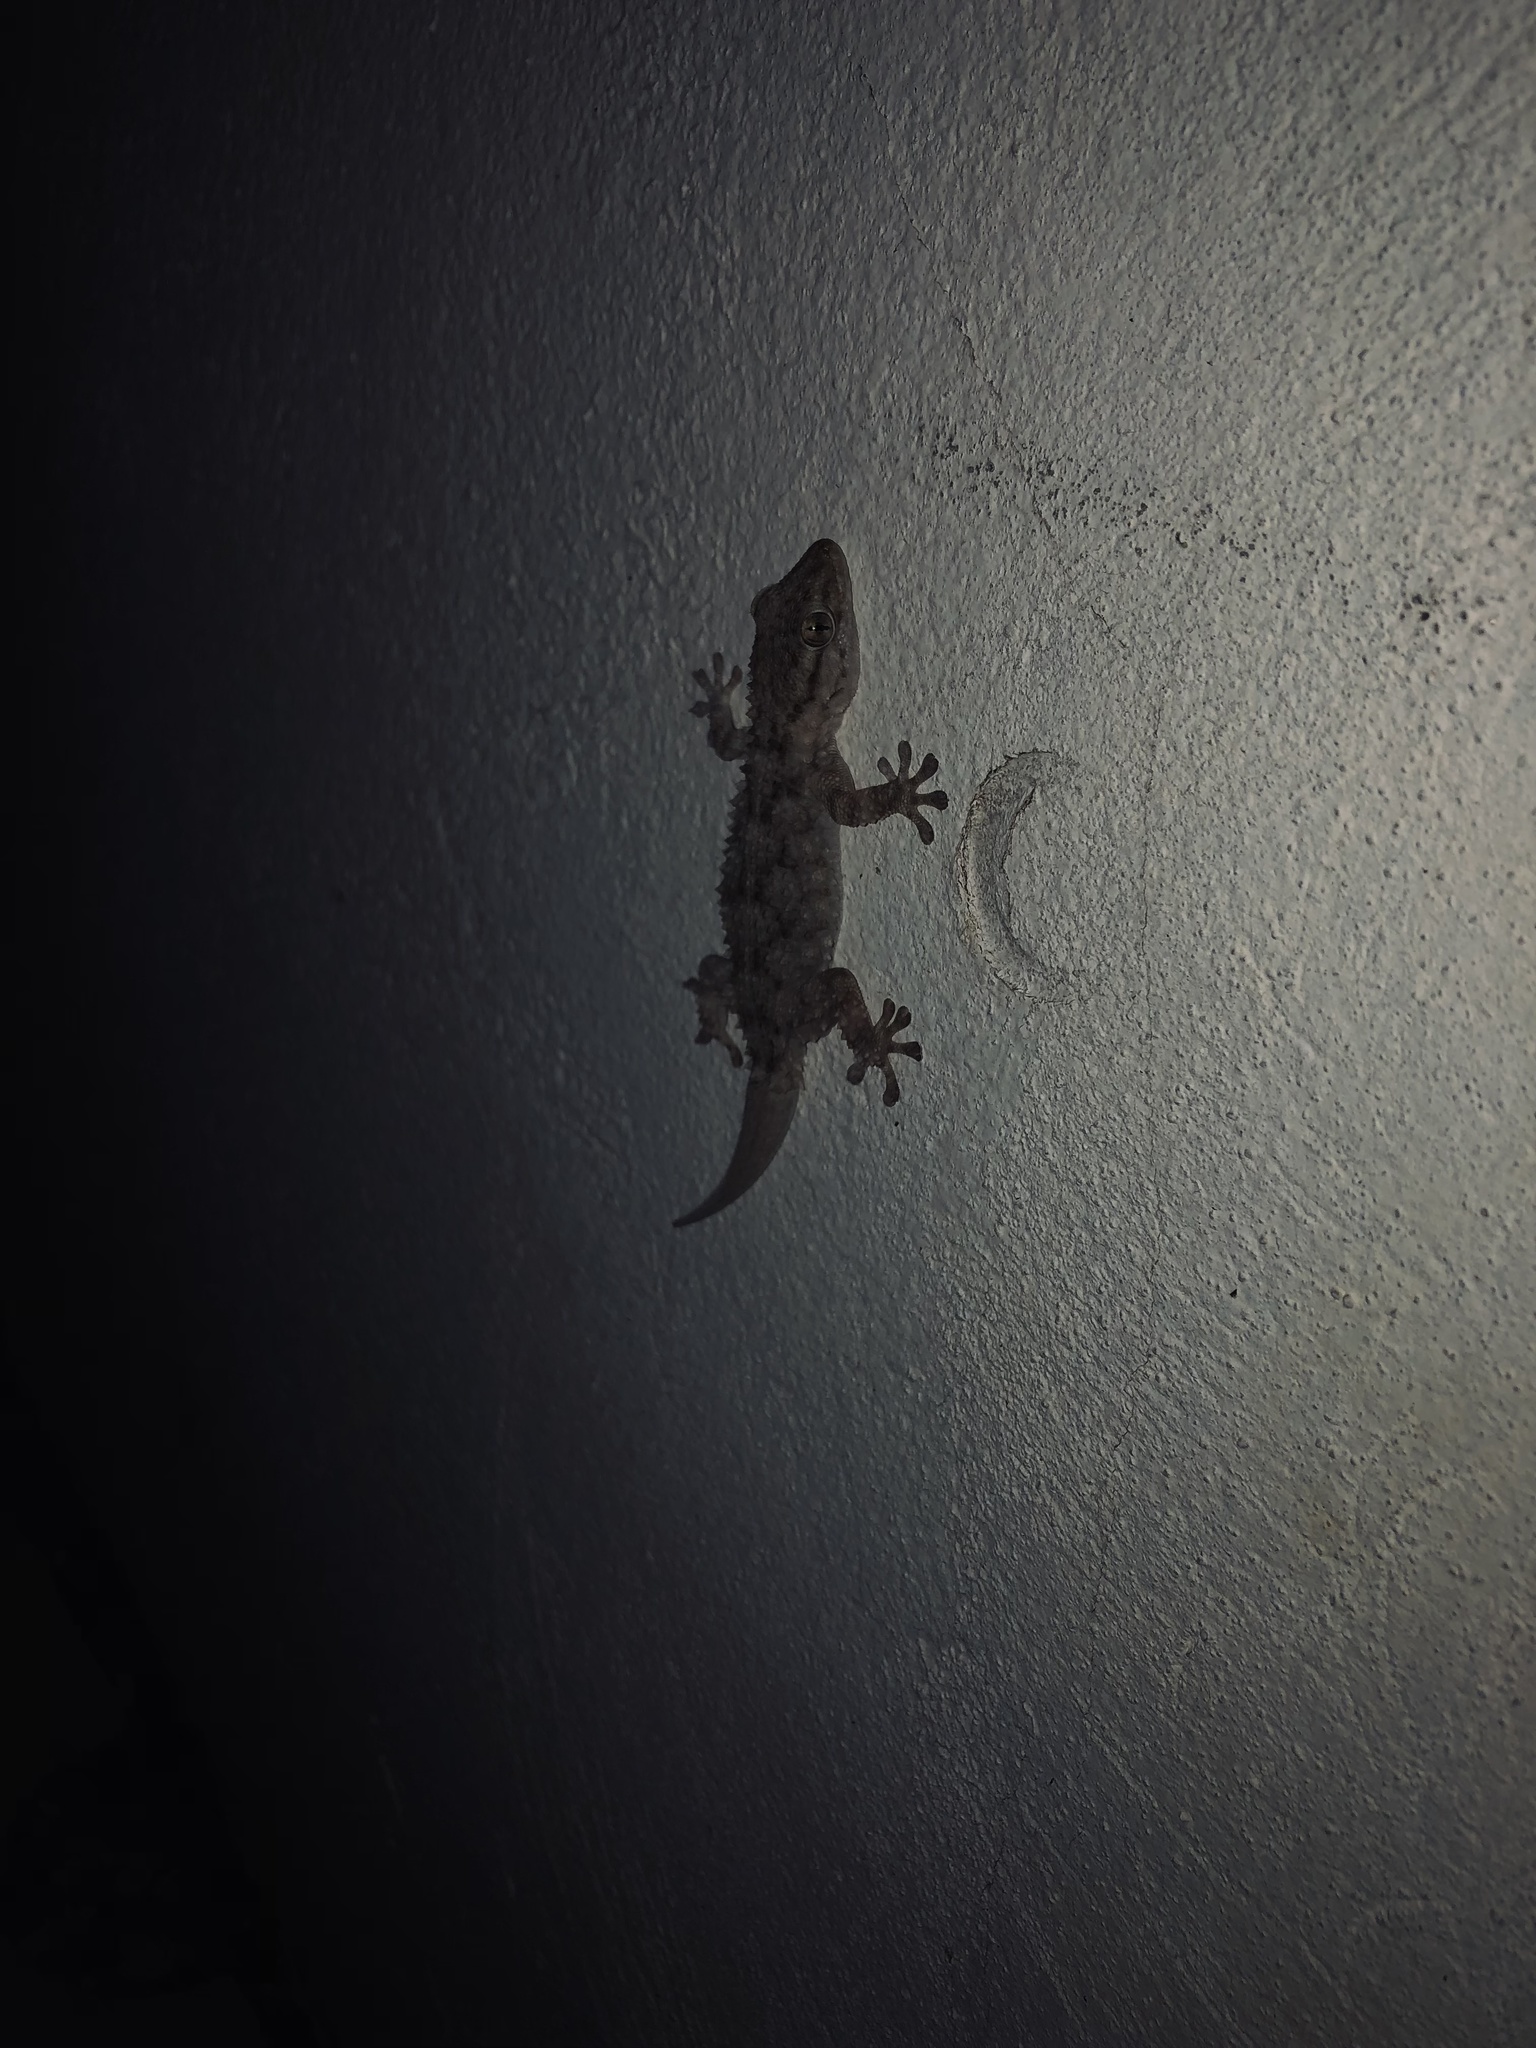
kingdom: Animalia
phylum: Chordata
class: Squamata
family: Phyllodactylidae
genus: Tarentola
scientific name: Tarentola mauritanica
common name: Moorish gecko
